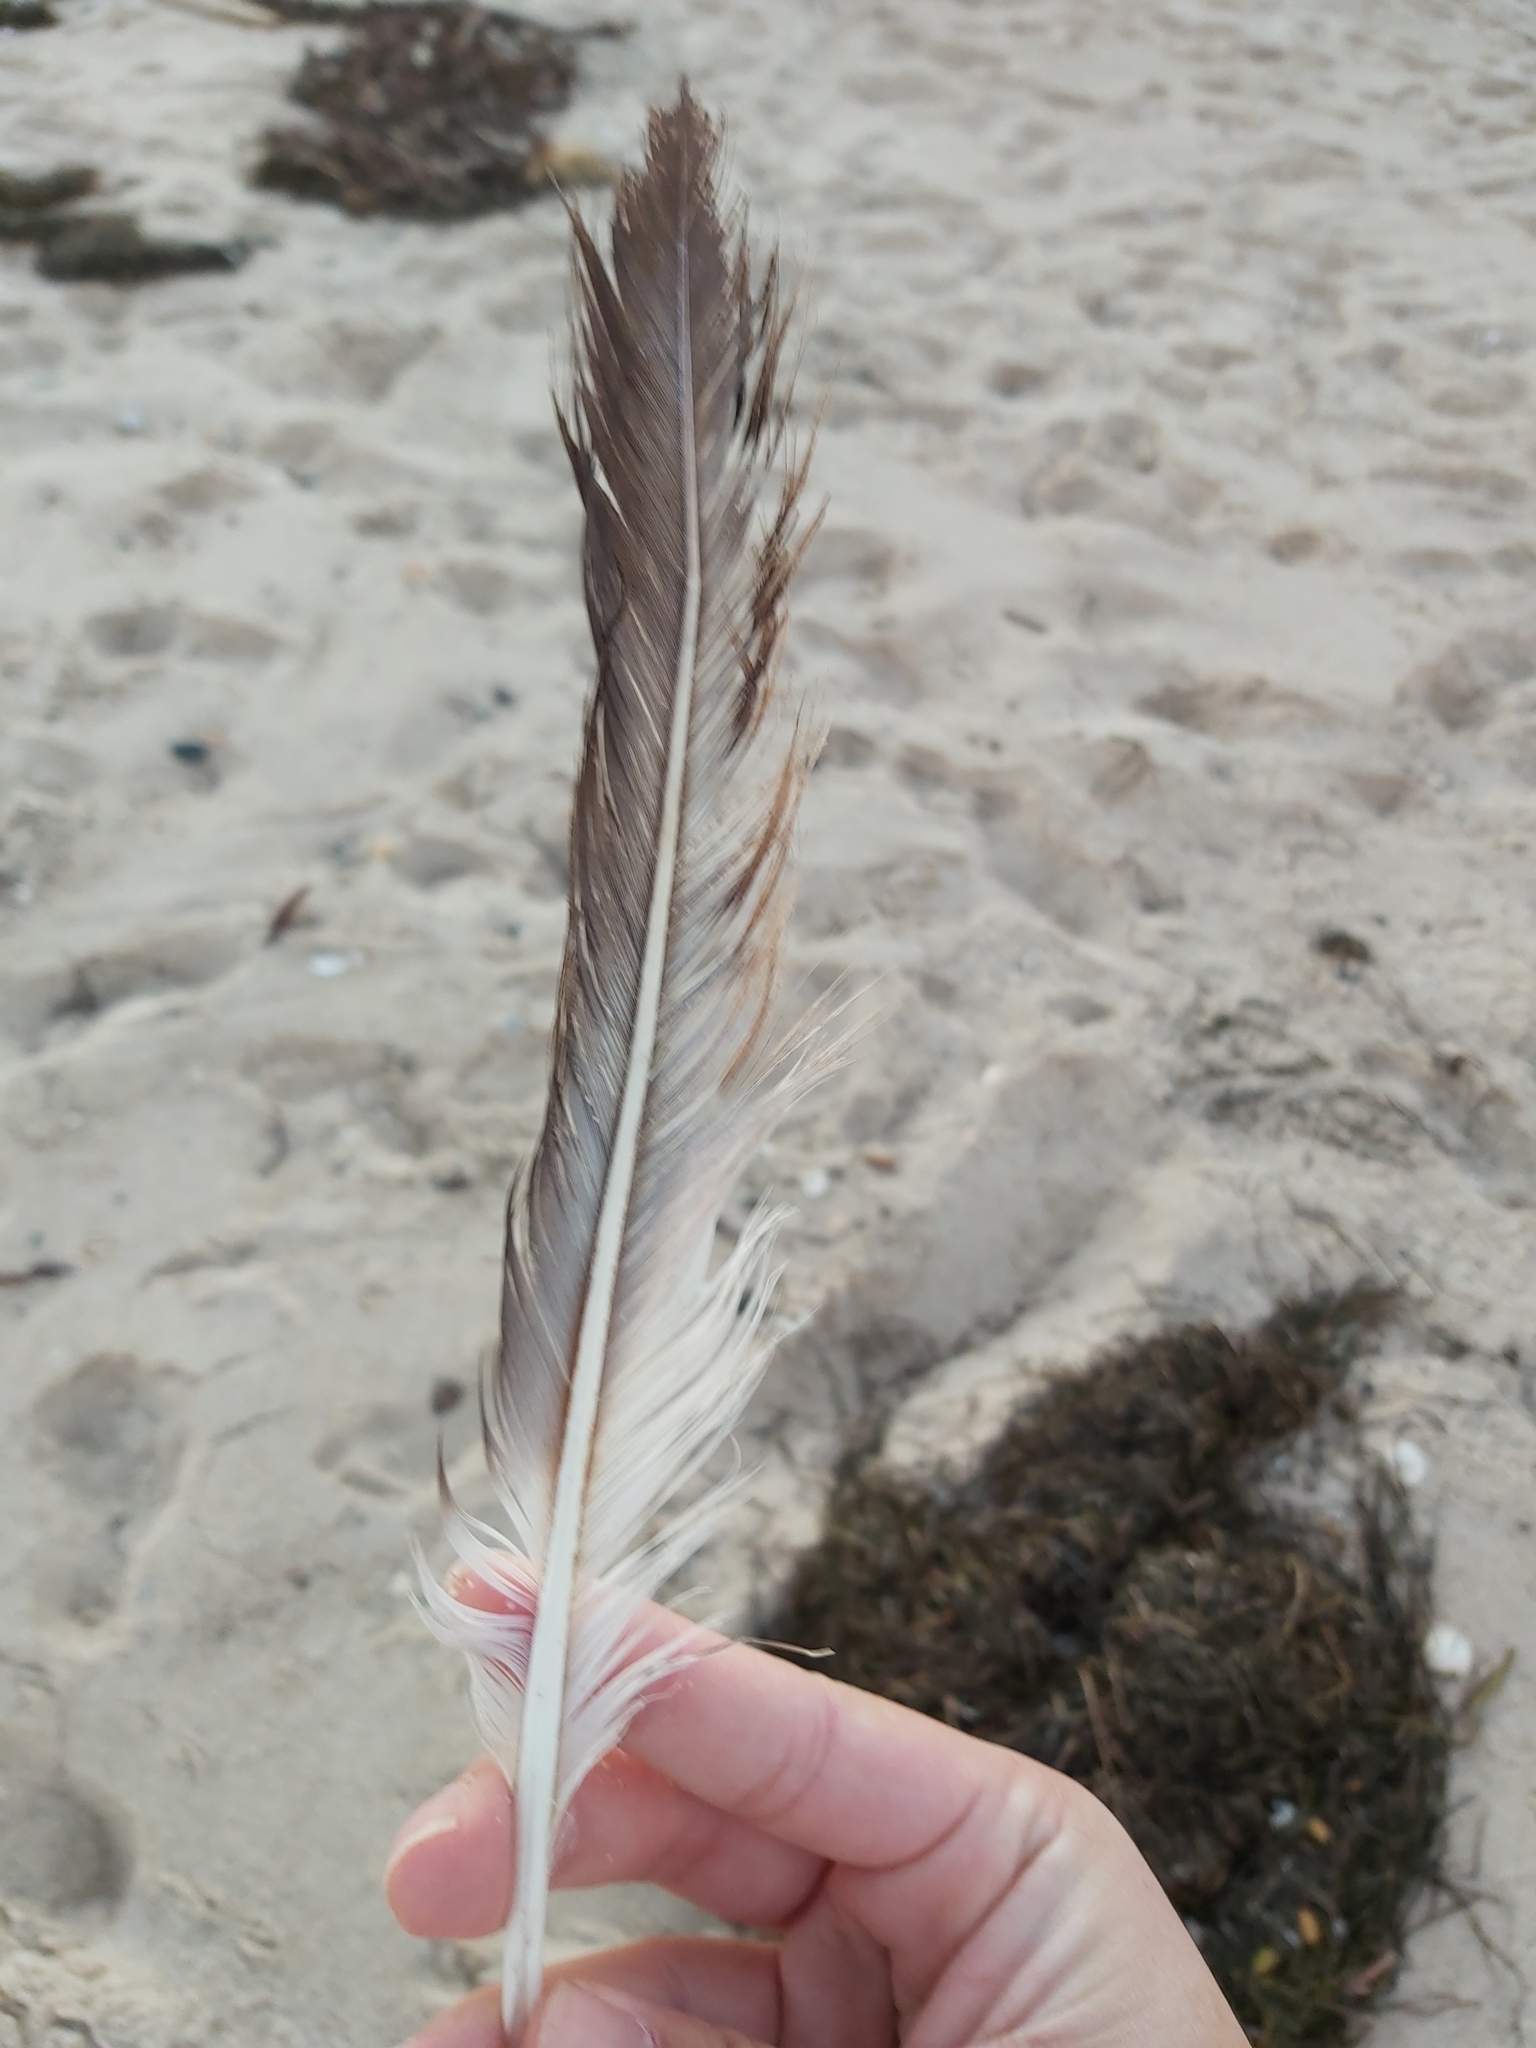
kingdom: Animalia
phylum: Chordata
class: Aves
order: Suliformes
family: Sulidae
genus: Morus
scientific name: Morus serrator
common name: Australasian gannet
